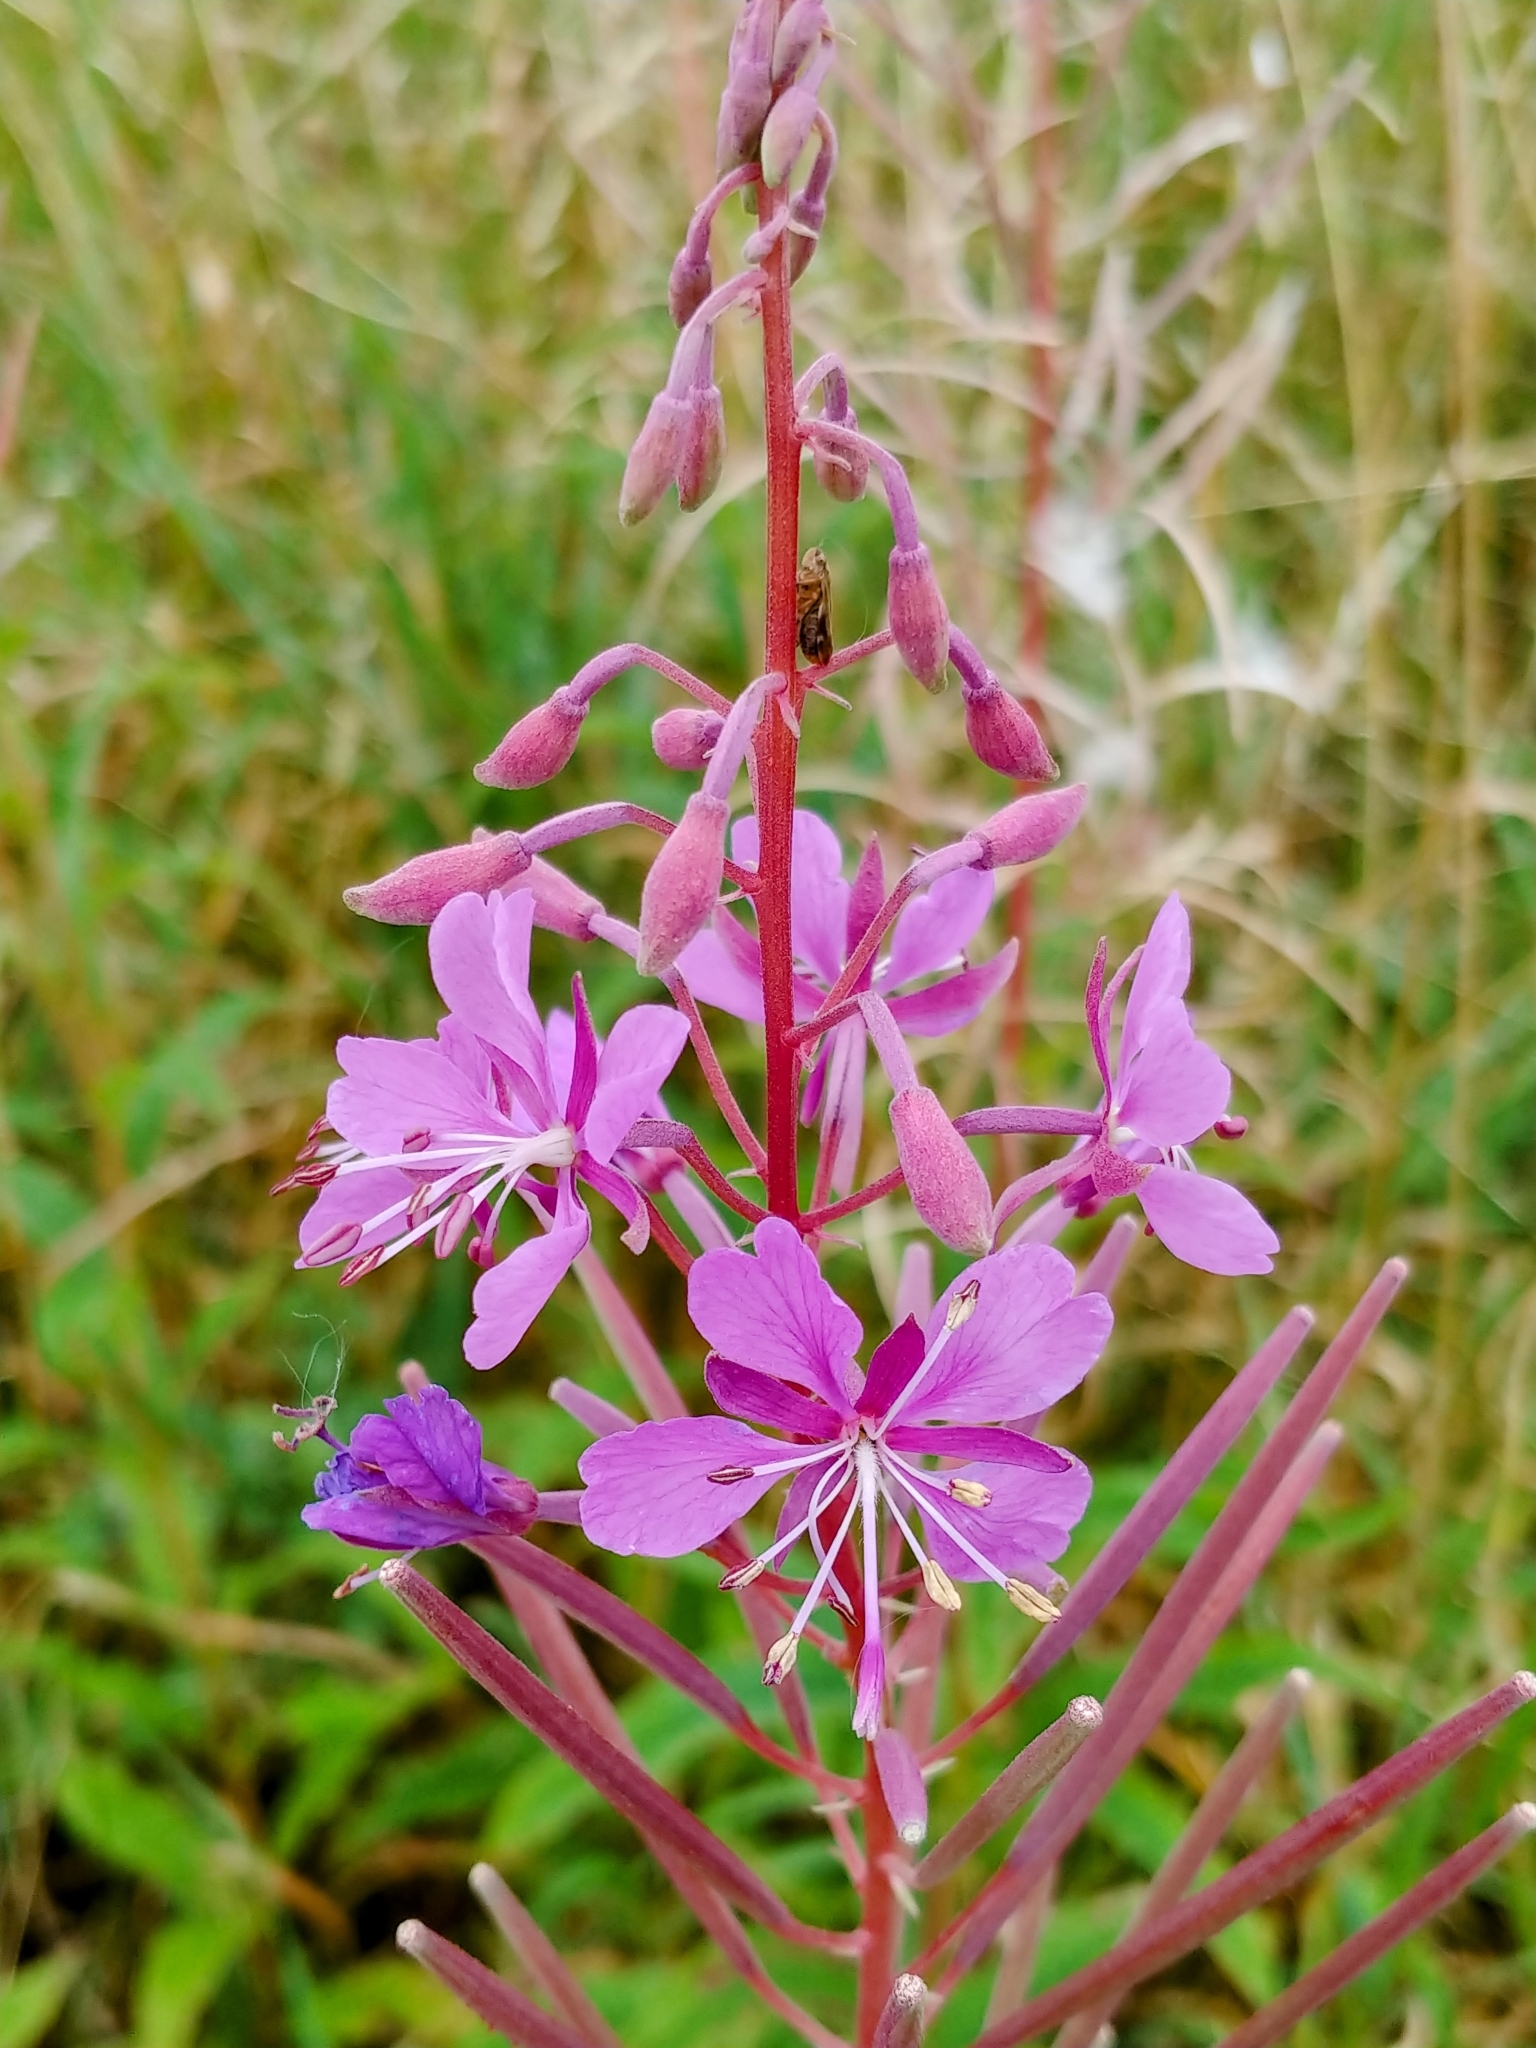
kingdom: Plantae
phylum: Tracheophyta
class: Magnoliopsida
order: Myrtales
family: Onagraceae
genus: Chamaenerion
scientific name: Chamaenerion angustifolium
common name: Fireweed
